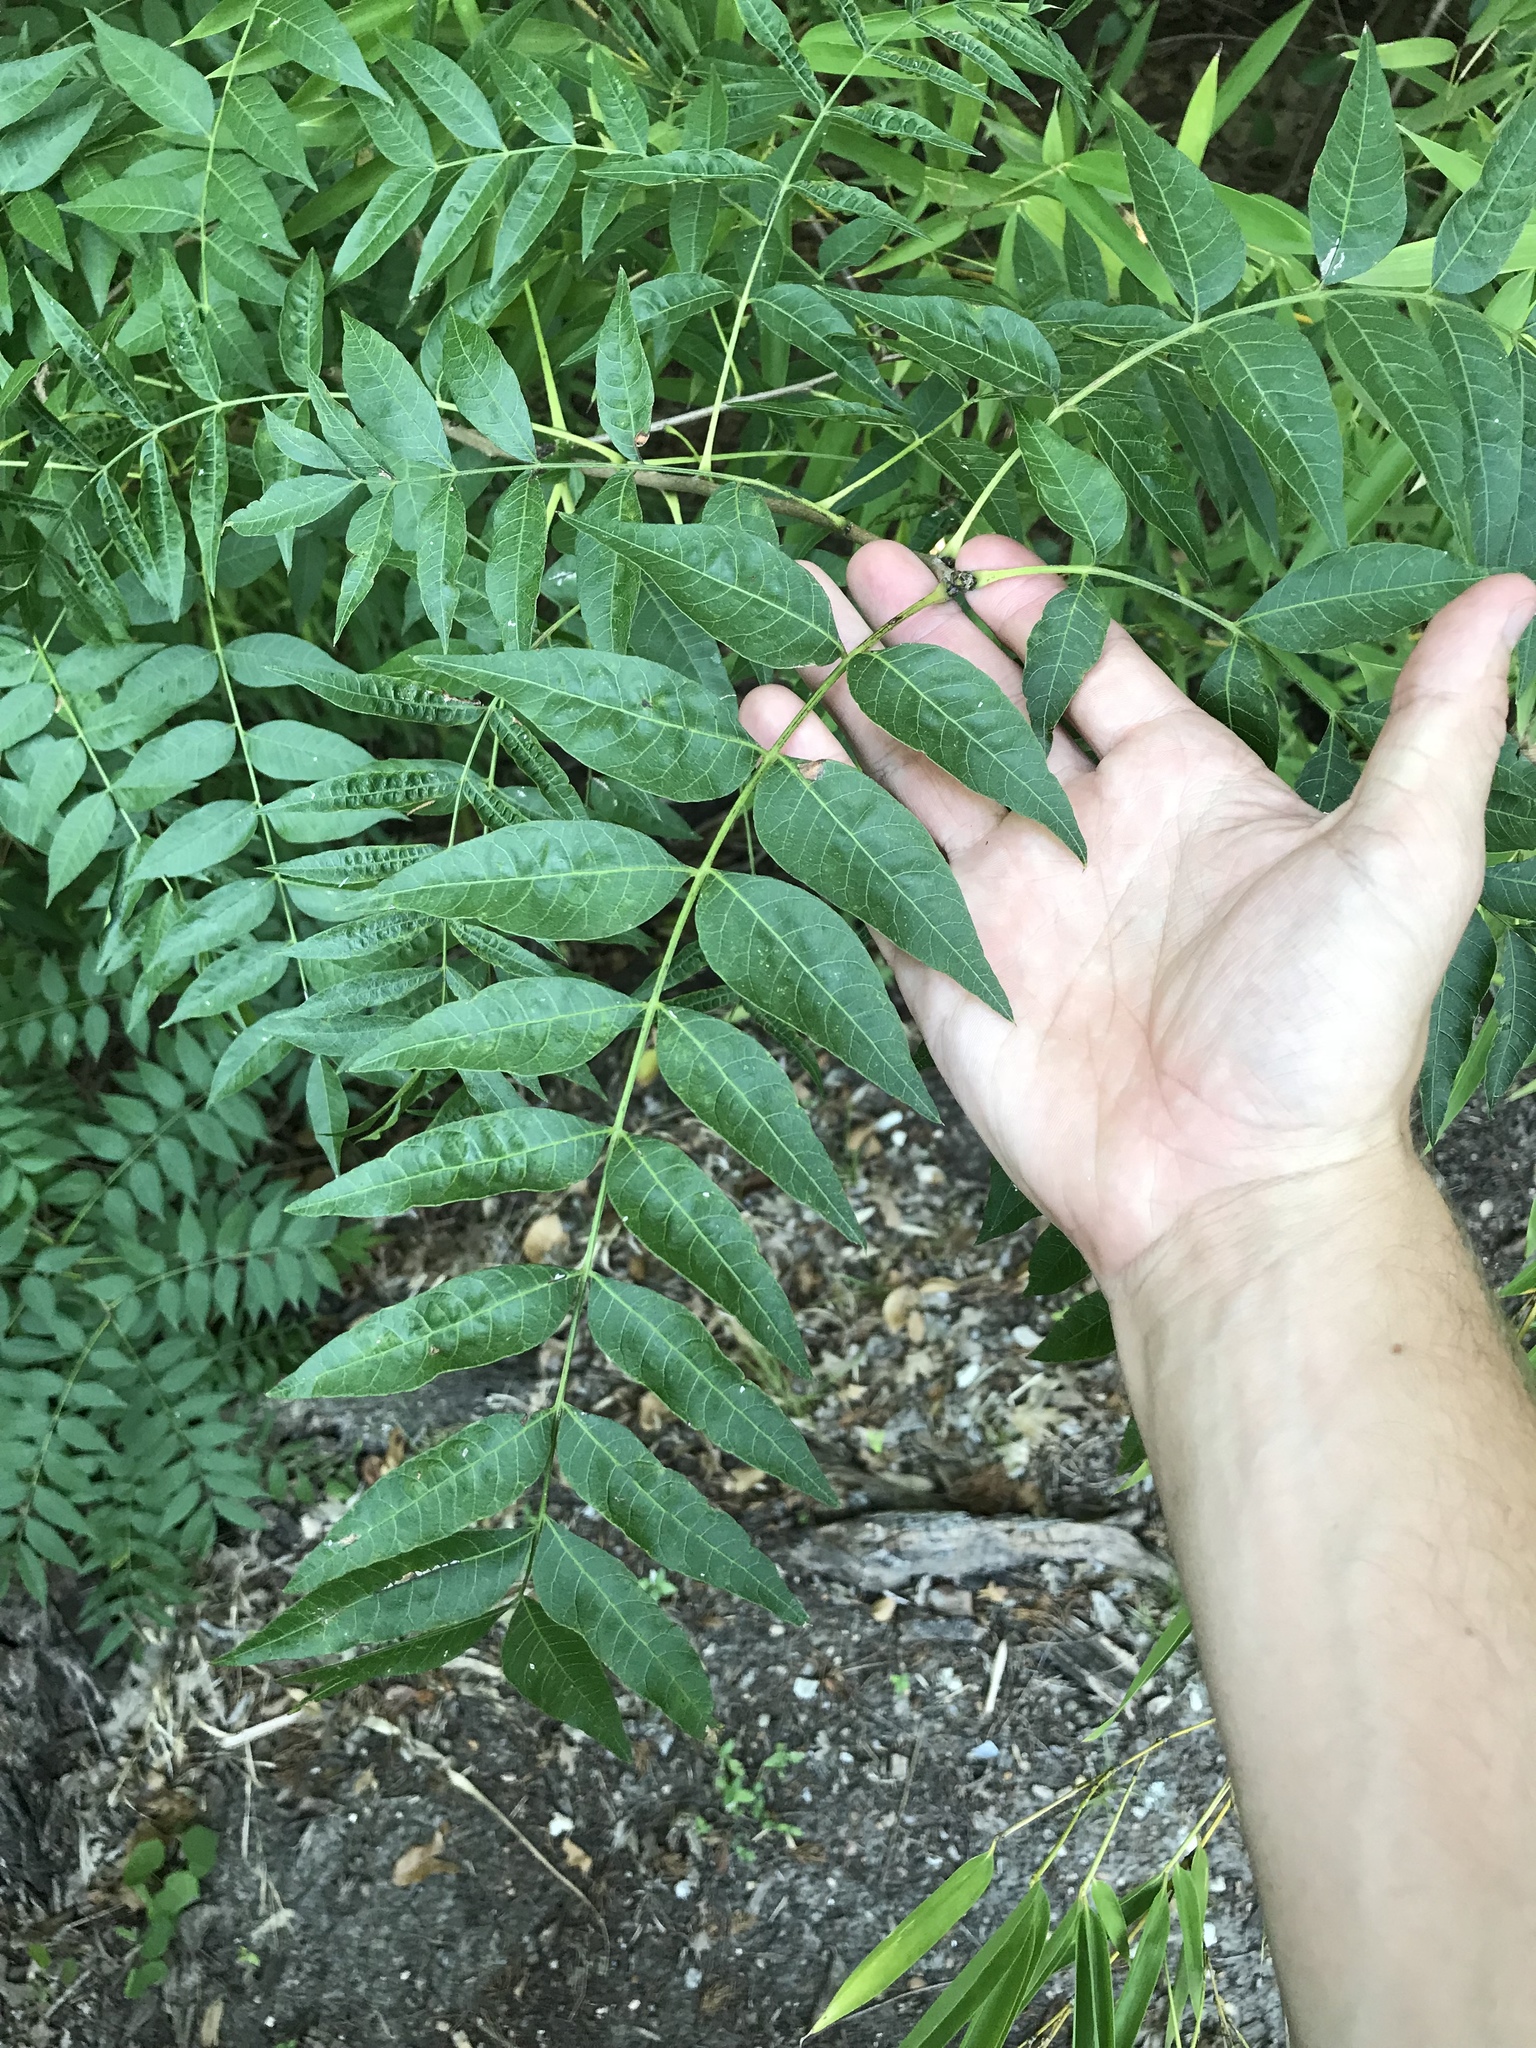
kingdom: Plantae
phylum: Tracheophyta
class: Magnoliopsida
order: Sapindales
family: Anacardiaceae
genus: Pistacia
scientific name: Pistacia chinensis
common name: Chinese pistache
